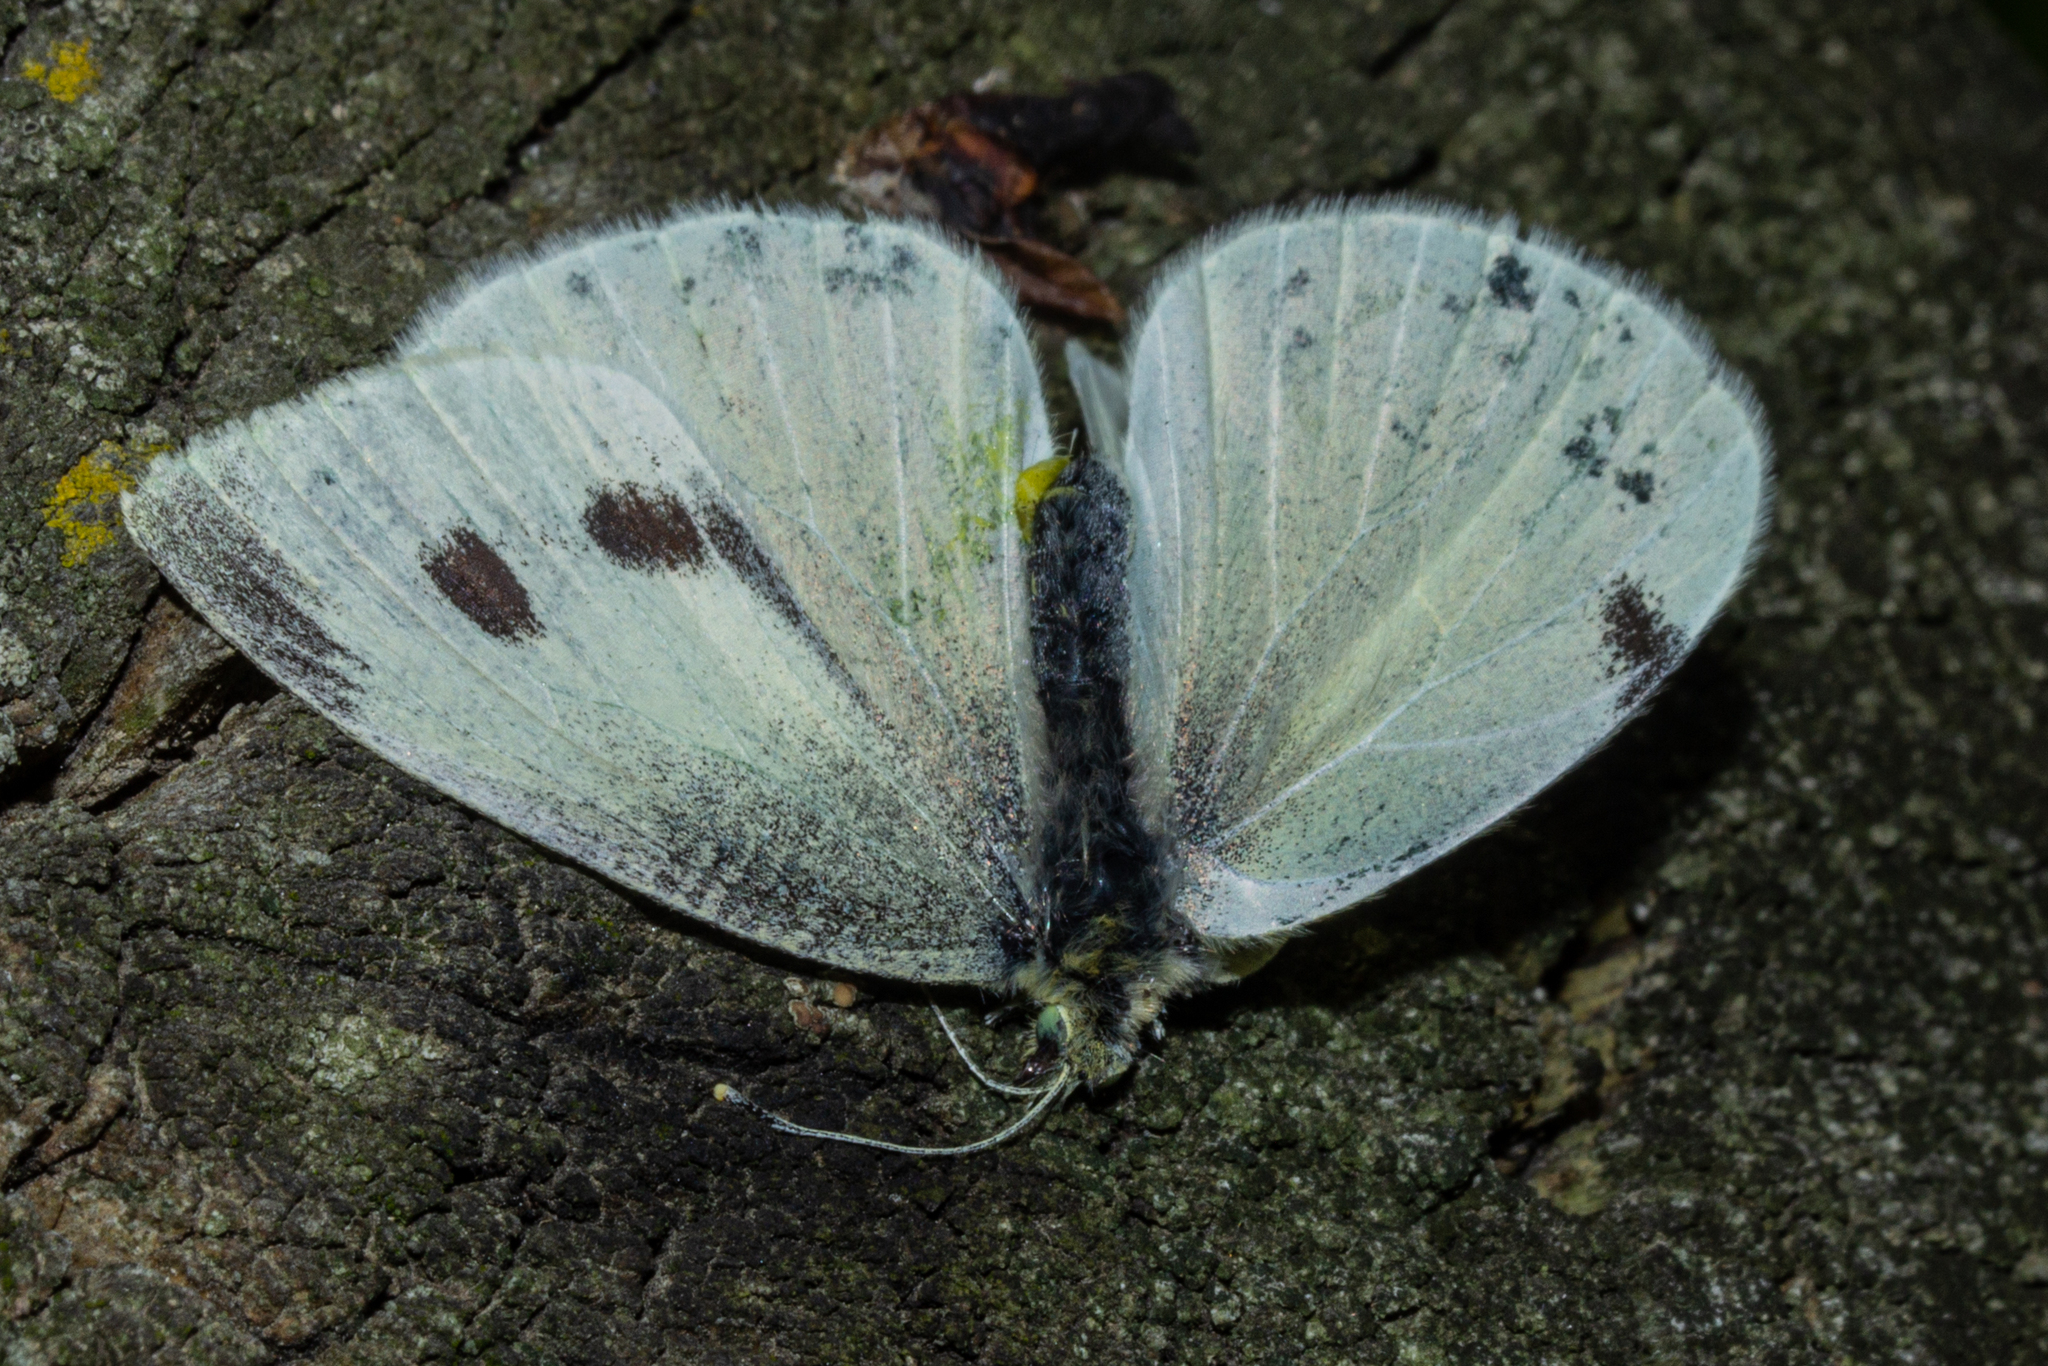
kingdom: Animalia
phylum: Arthropoda
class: Insecta
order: Lepidoptera
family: Pieridae
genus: Pieris
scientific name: Pieris rapae
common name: Small white
